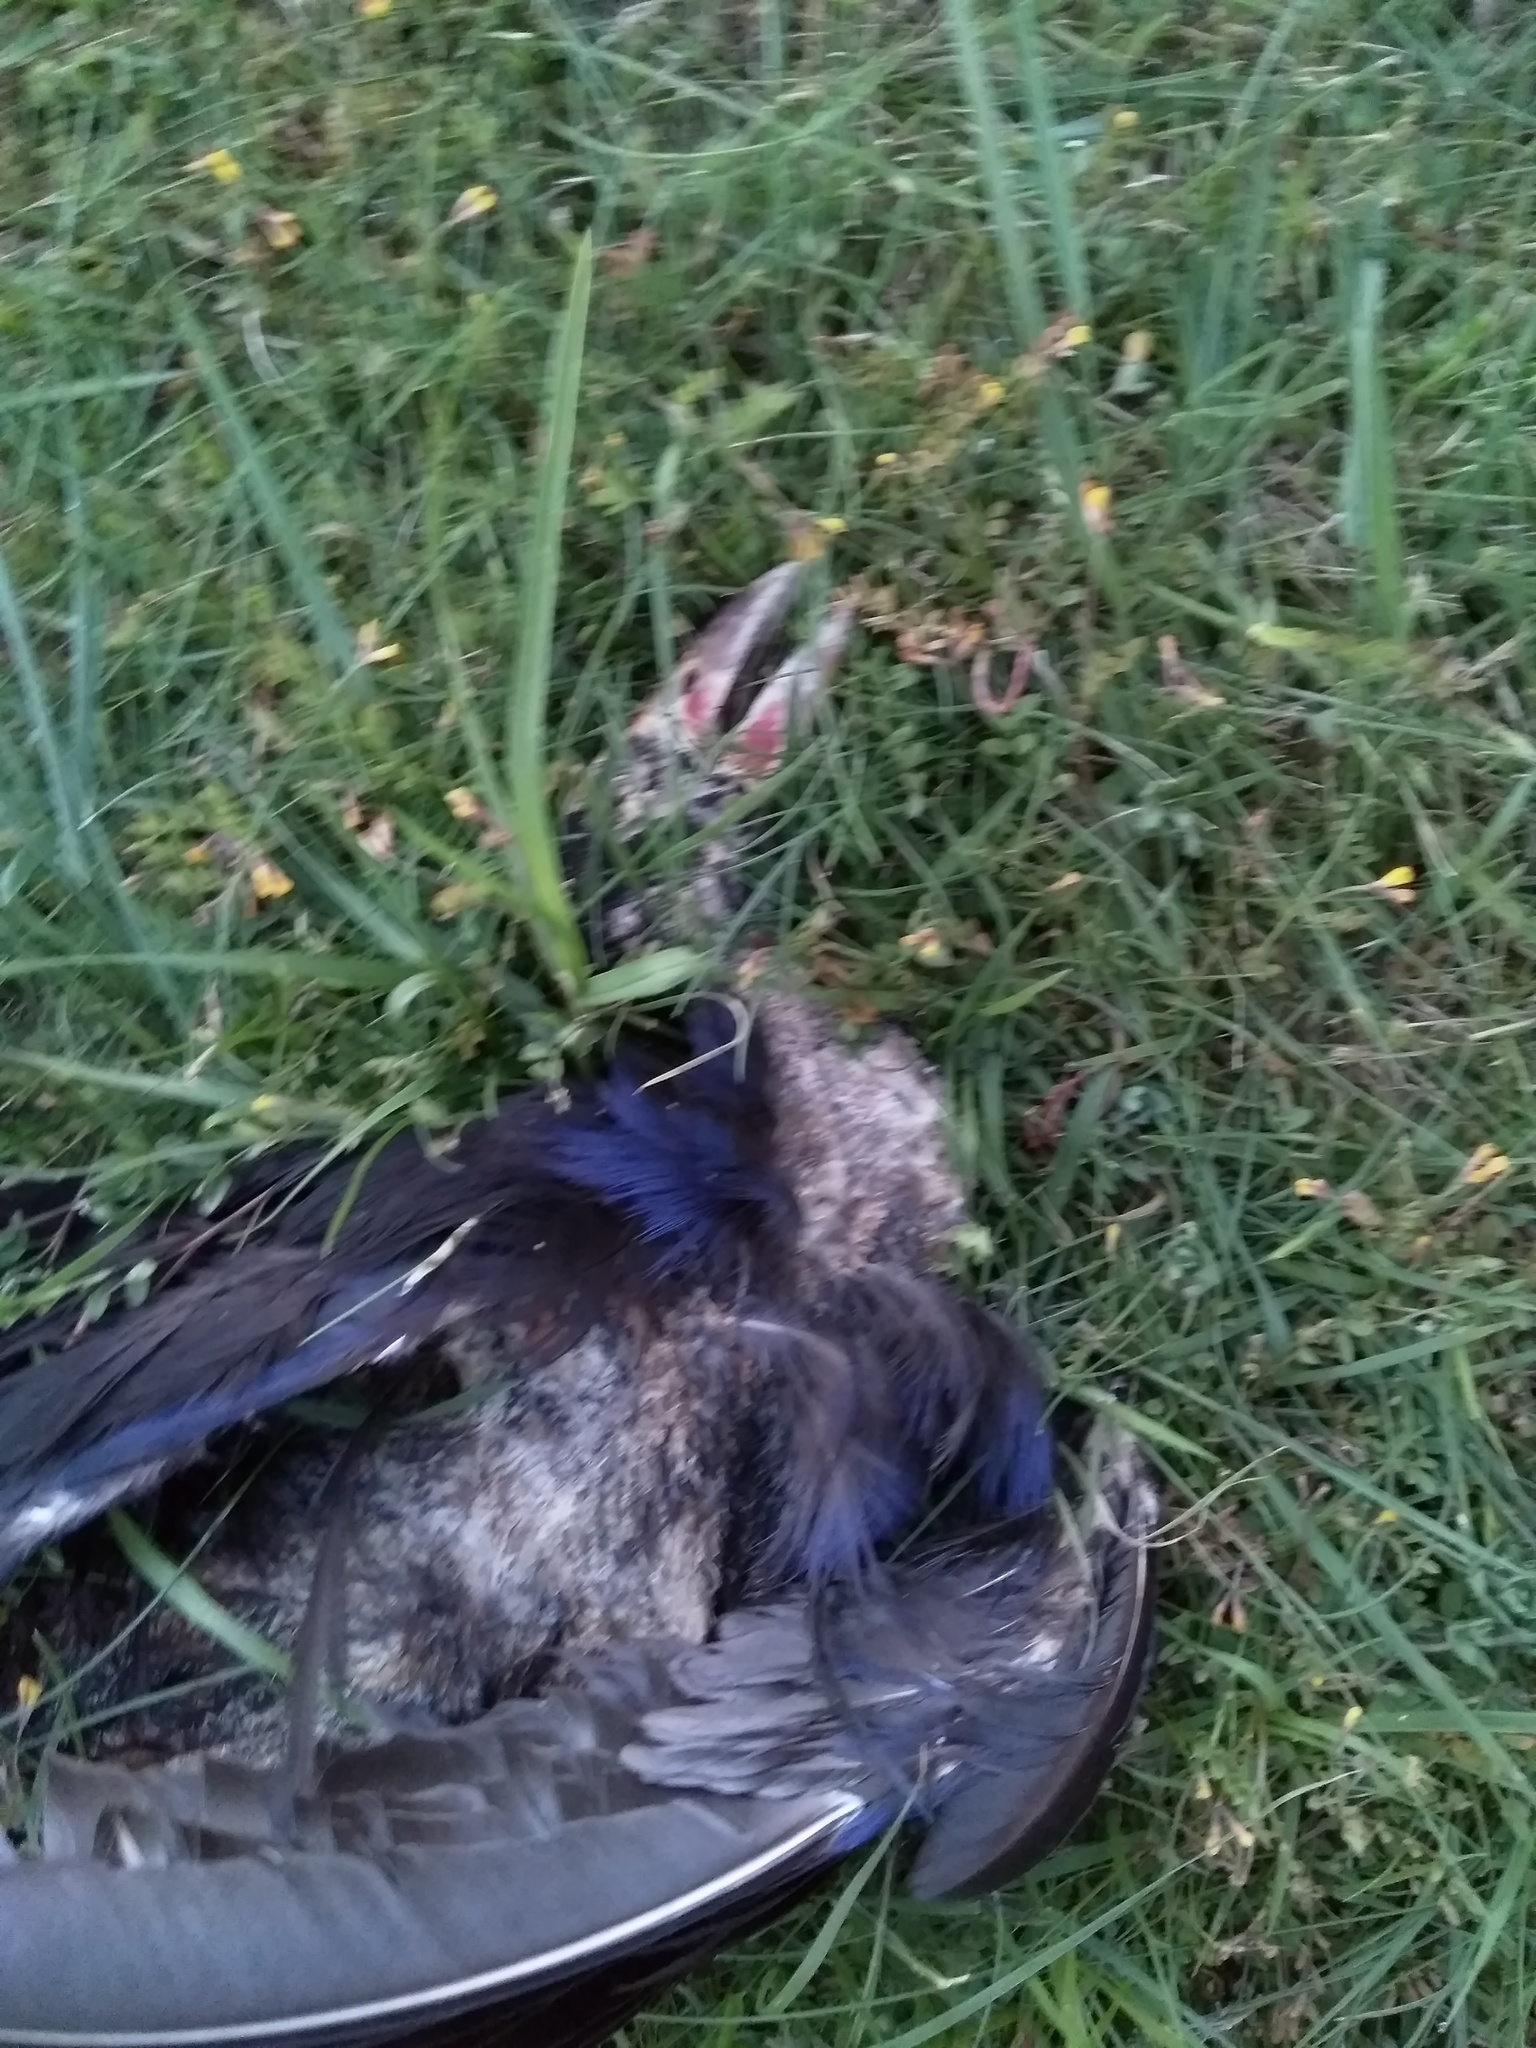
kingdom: Animalia
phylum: Chordata
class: Aves
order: Gruiformes
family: Rallidae
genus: Porphyrio
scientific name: Porphyrio melanotus
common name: Australasian swamphen
